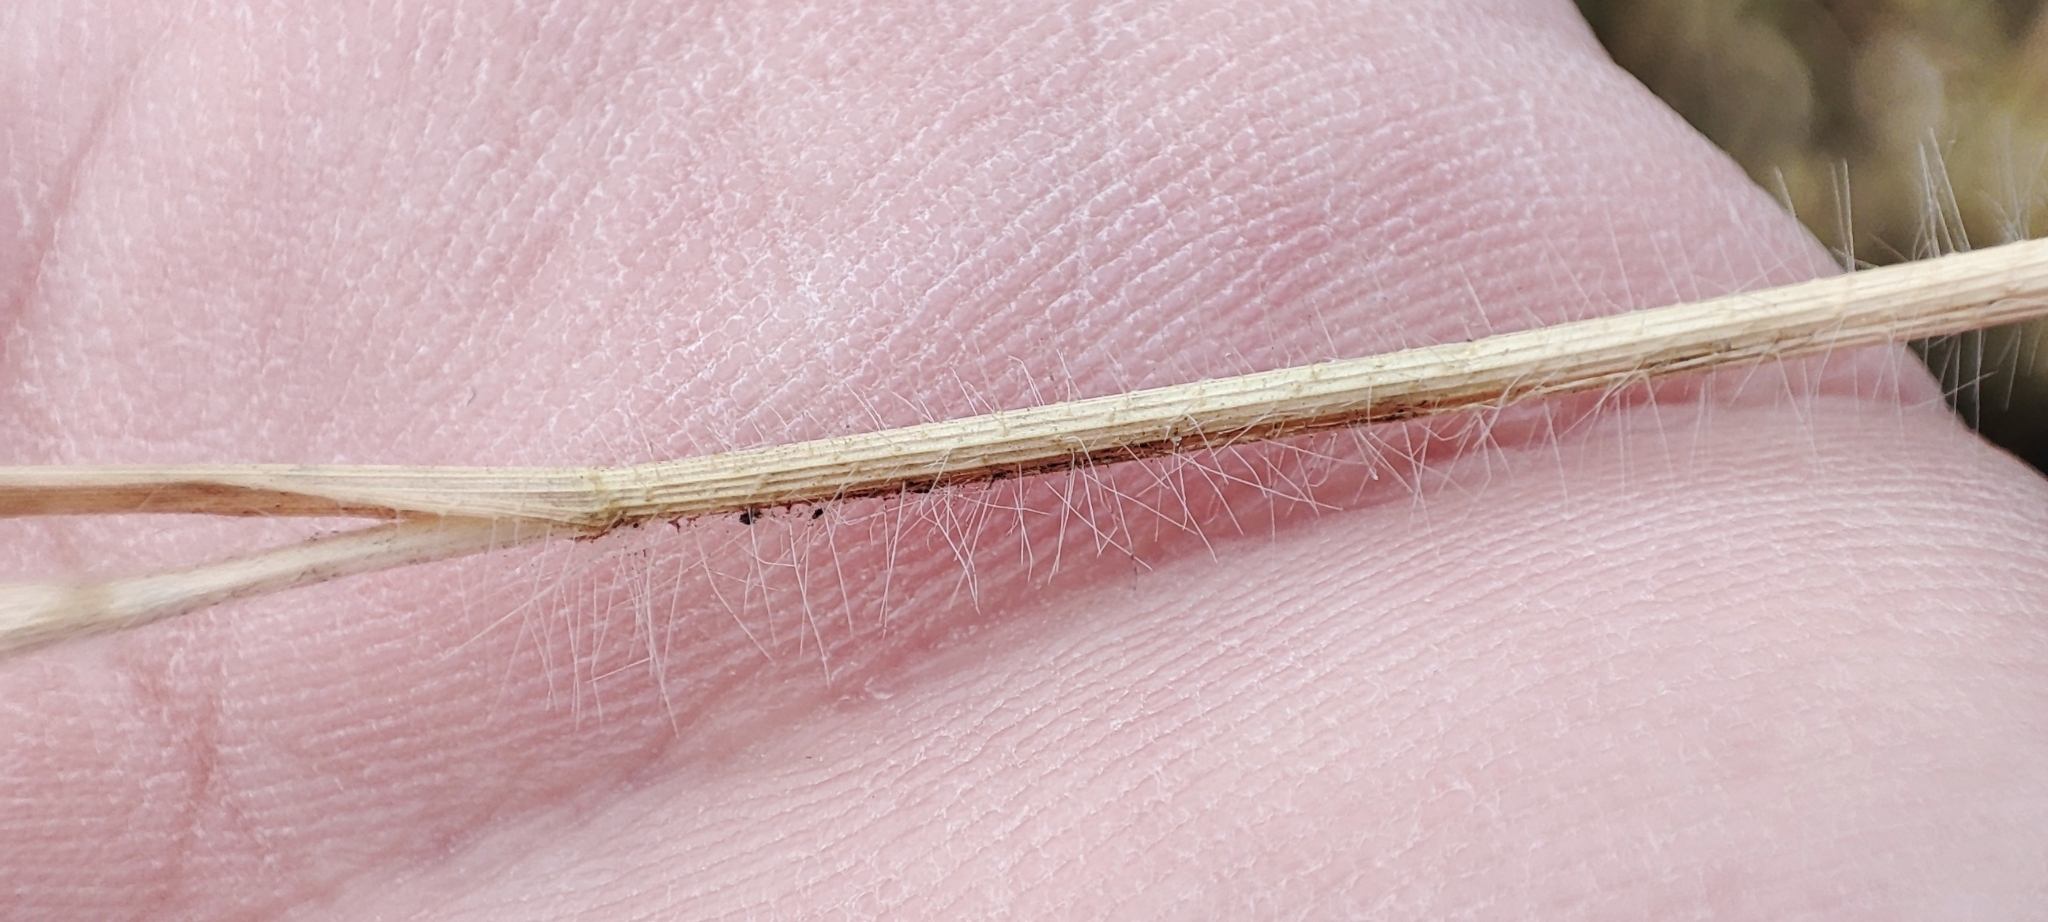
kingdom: Plantae
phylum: Tracheophyta
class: Liliopsida
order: Poales
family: Poaceae
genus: Panicum
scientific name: Panicum miliaceum
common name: Common millet
